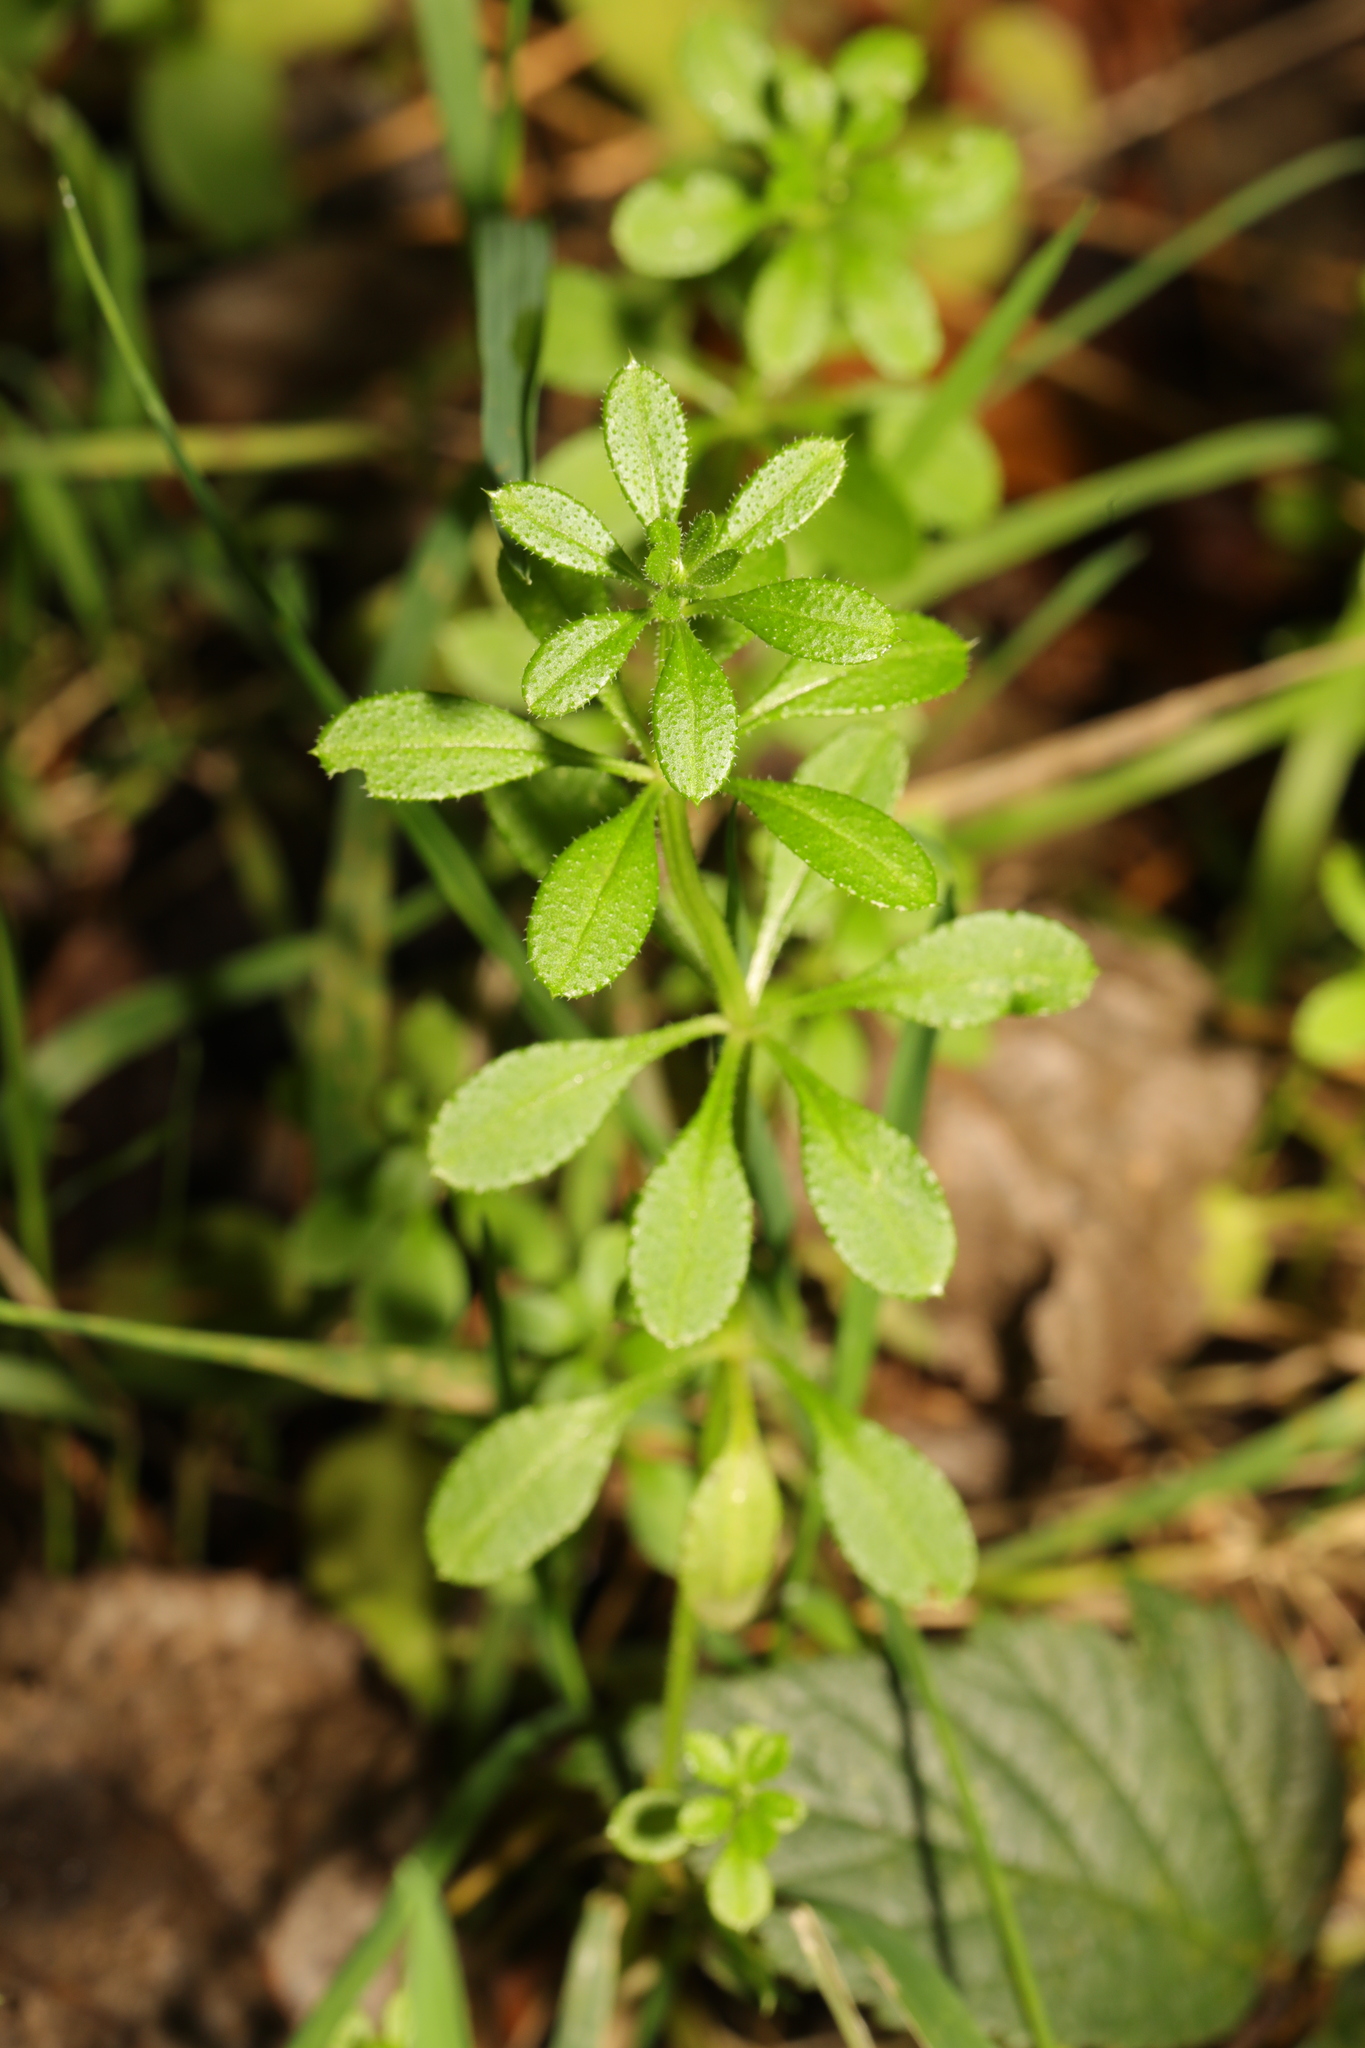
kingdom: Plantae
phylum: Tracheophyta
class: Magnoliopsida
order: Gentianales
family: Rubiaceae
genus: Galium
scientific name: Galium aparine
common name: Cleavers
